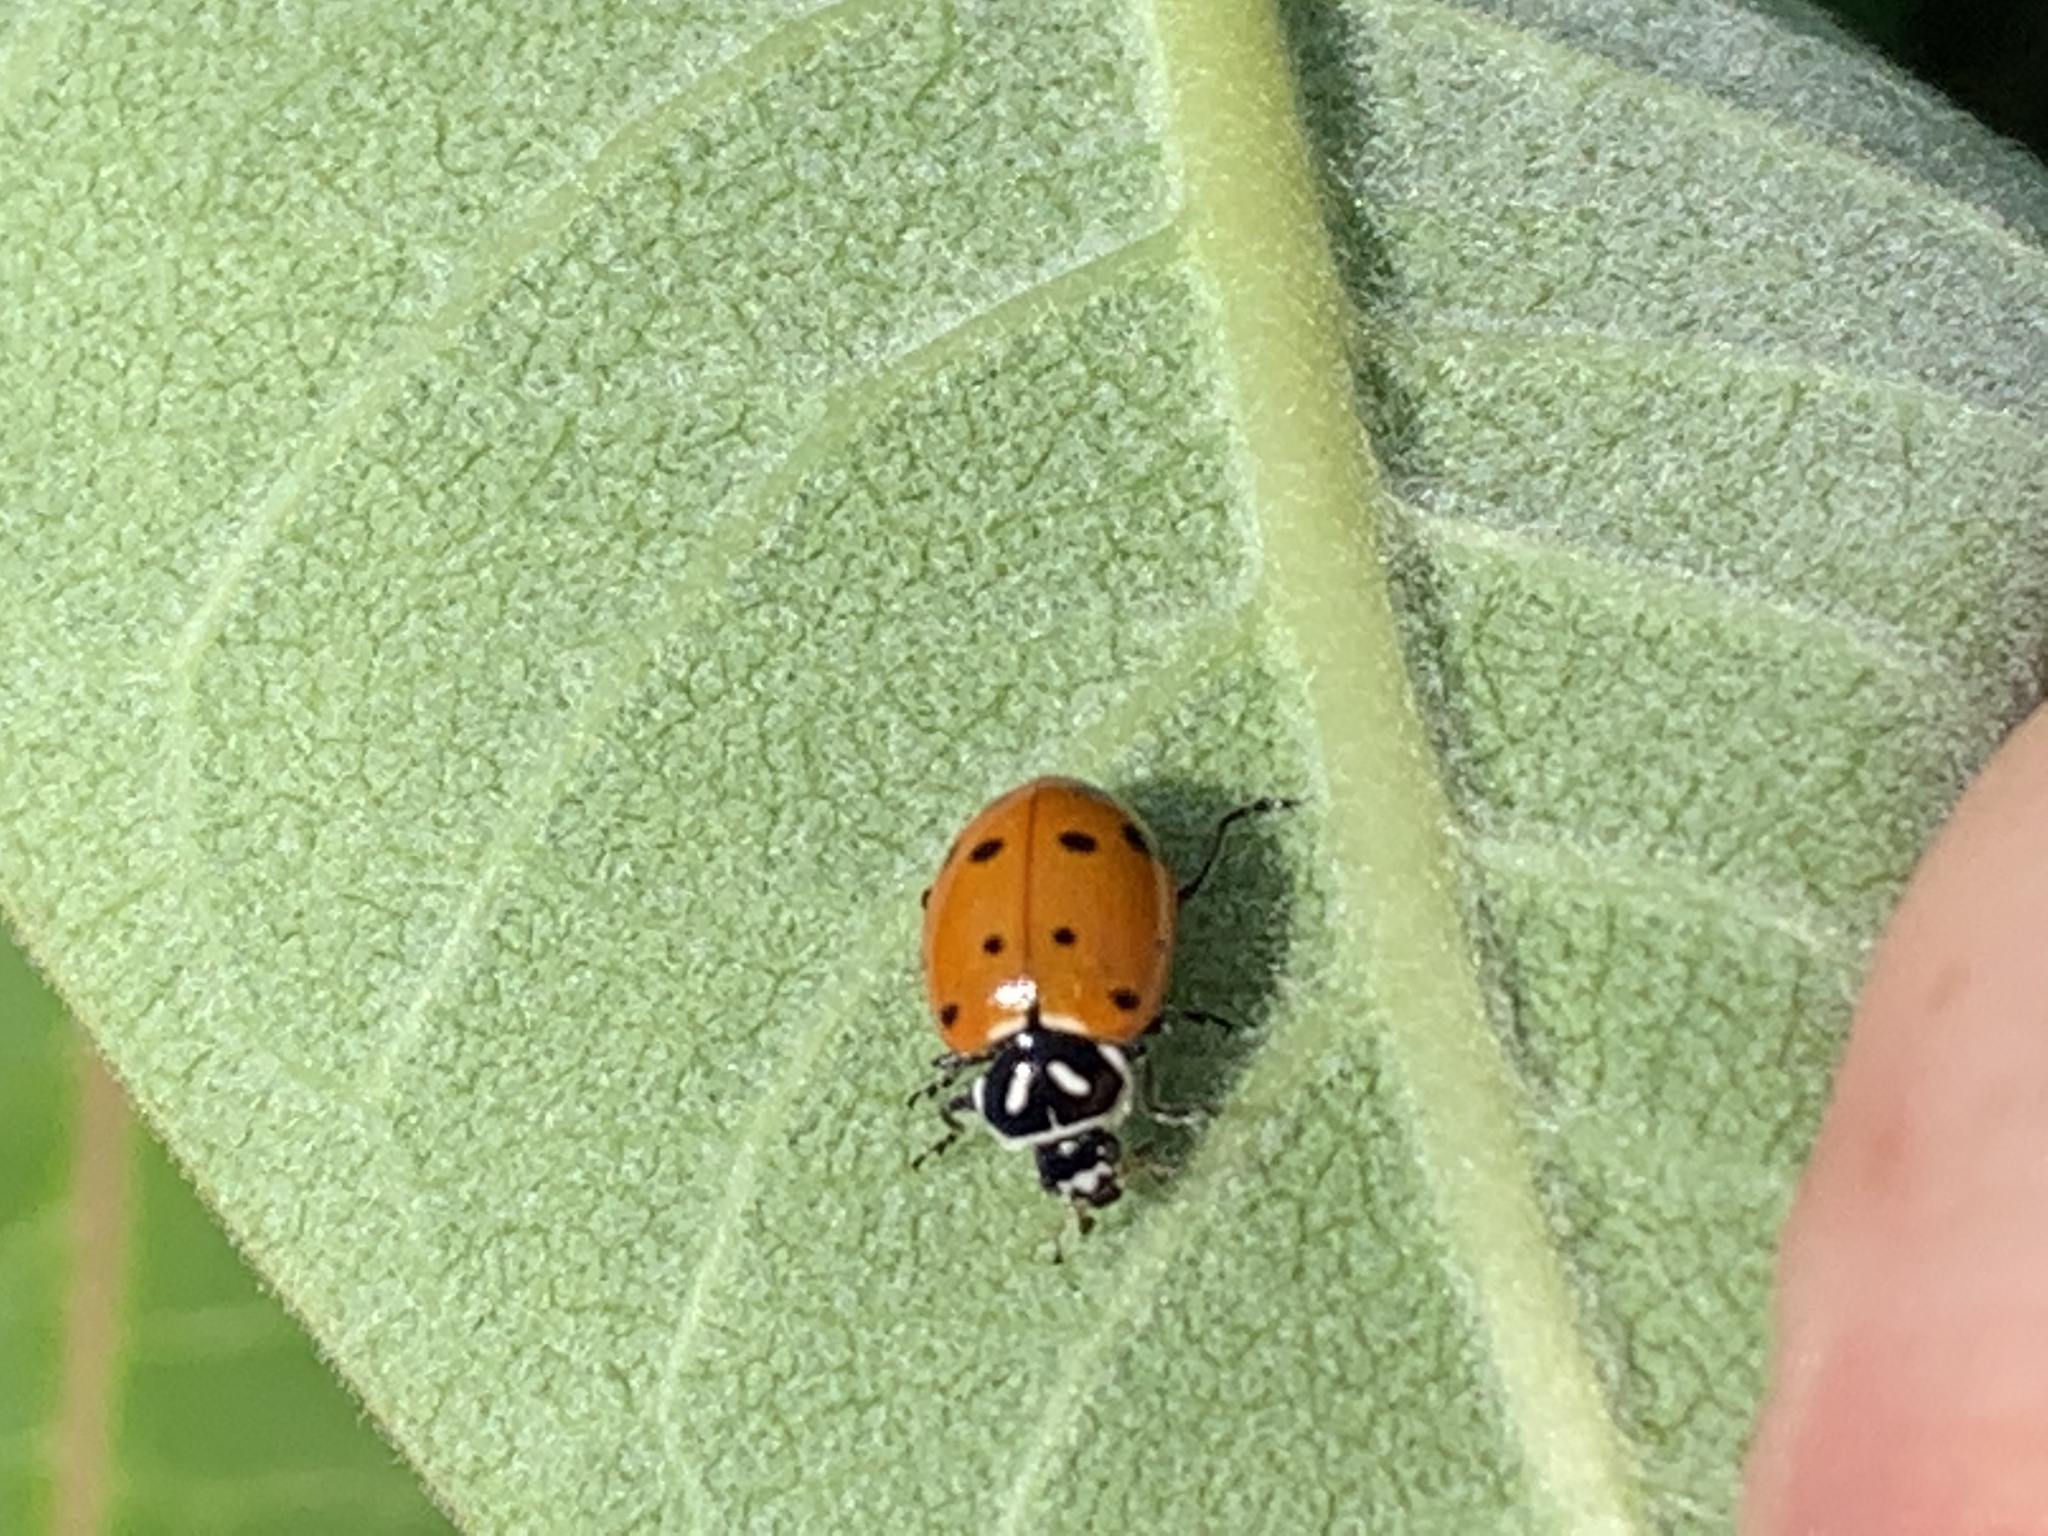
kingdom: Animalia
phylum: Arthropoda
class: Insecta
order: Coleoptera
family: Coccinellidae
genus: Hippodamia
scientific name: Hippodamia convergens
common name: Convergent lady beetle
